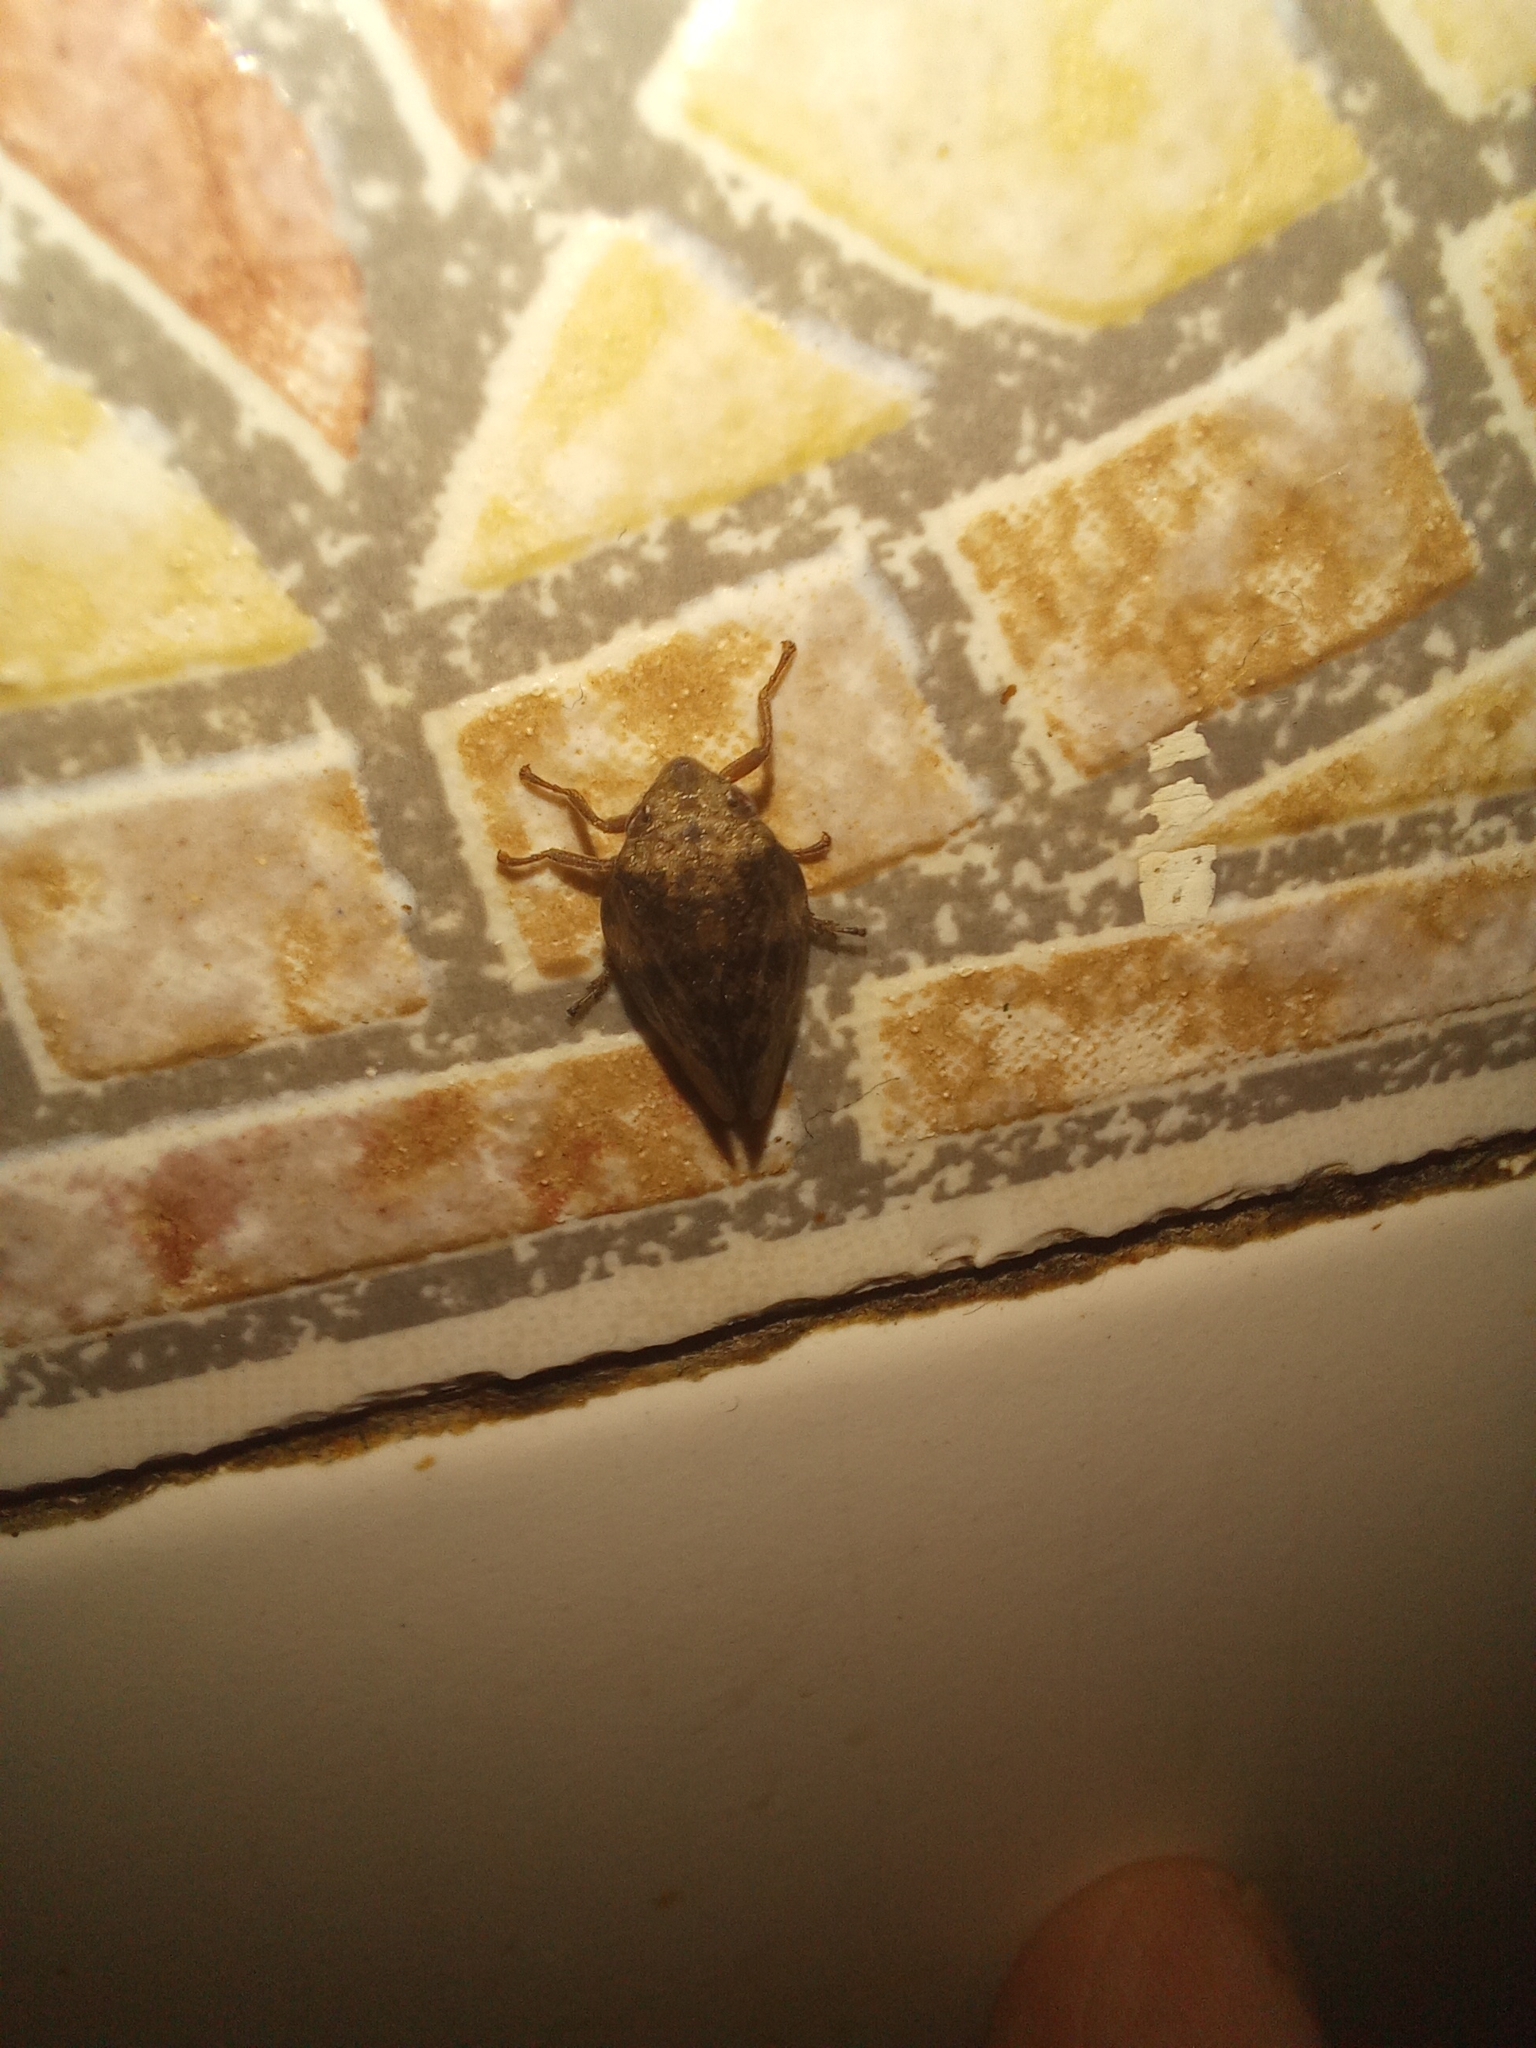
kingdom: Animalia
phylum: Arthropoda
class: Insecta
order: Hemiptera
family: Aphrophoridae
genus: Cephisus
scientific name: Cephisus siccifolius
